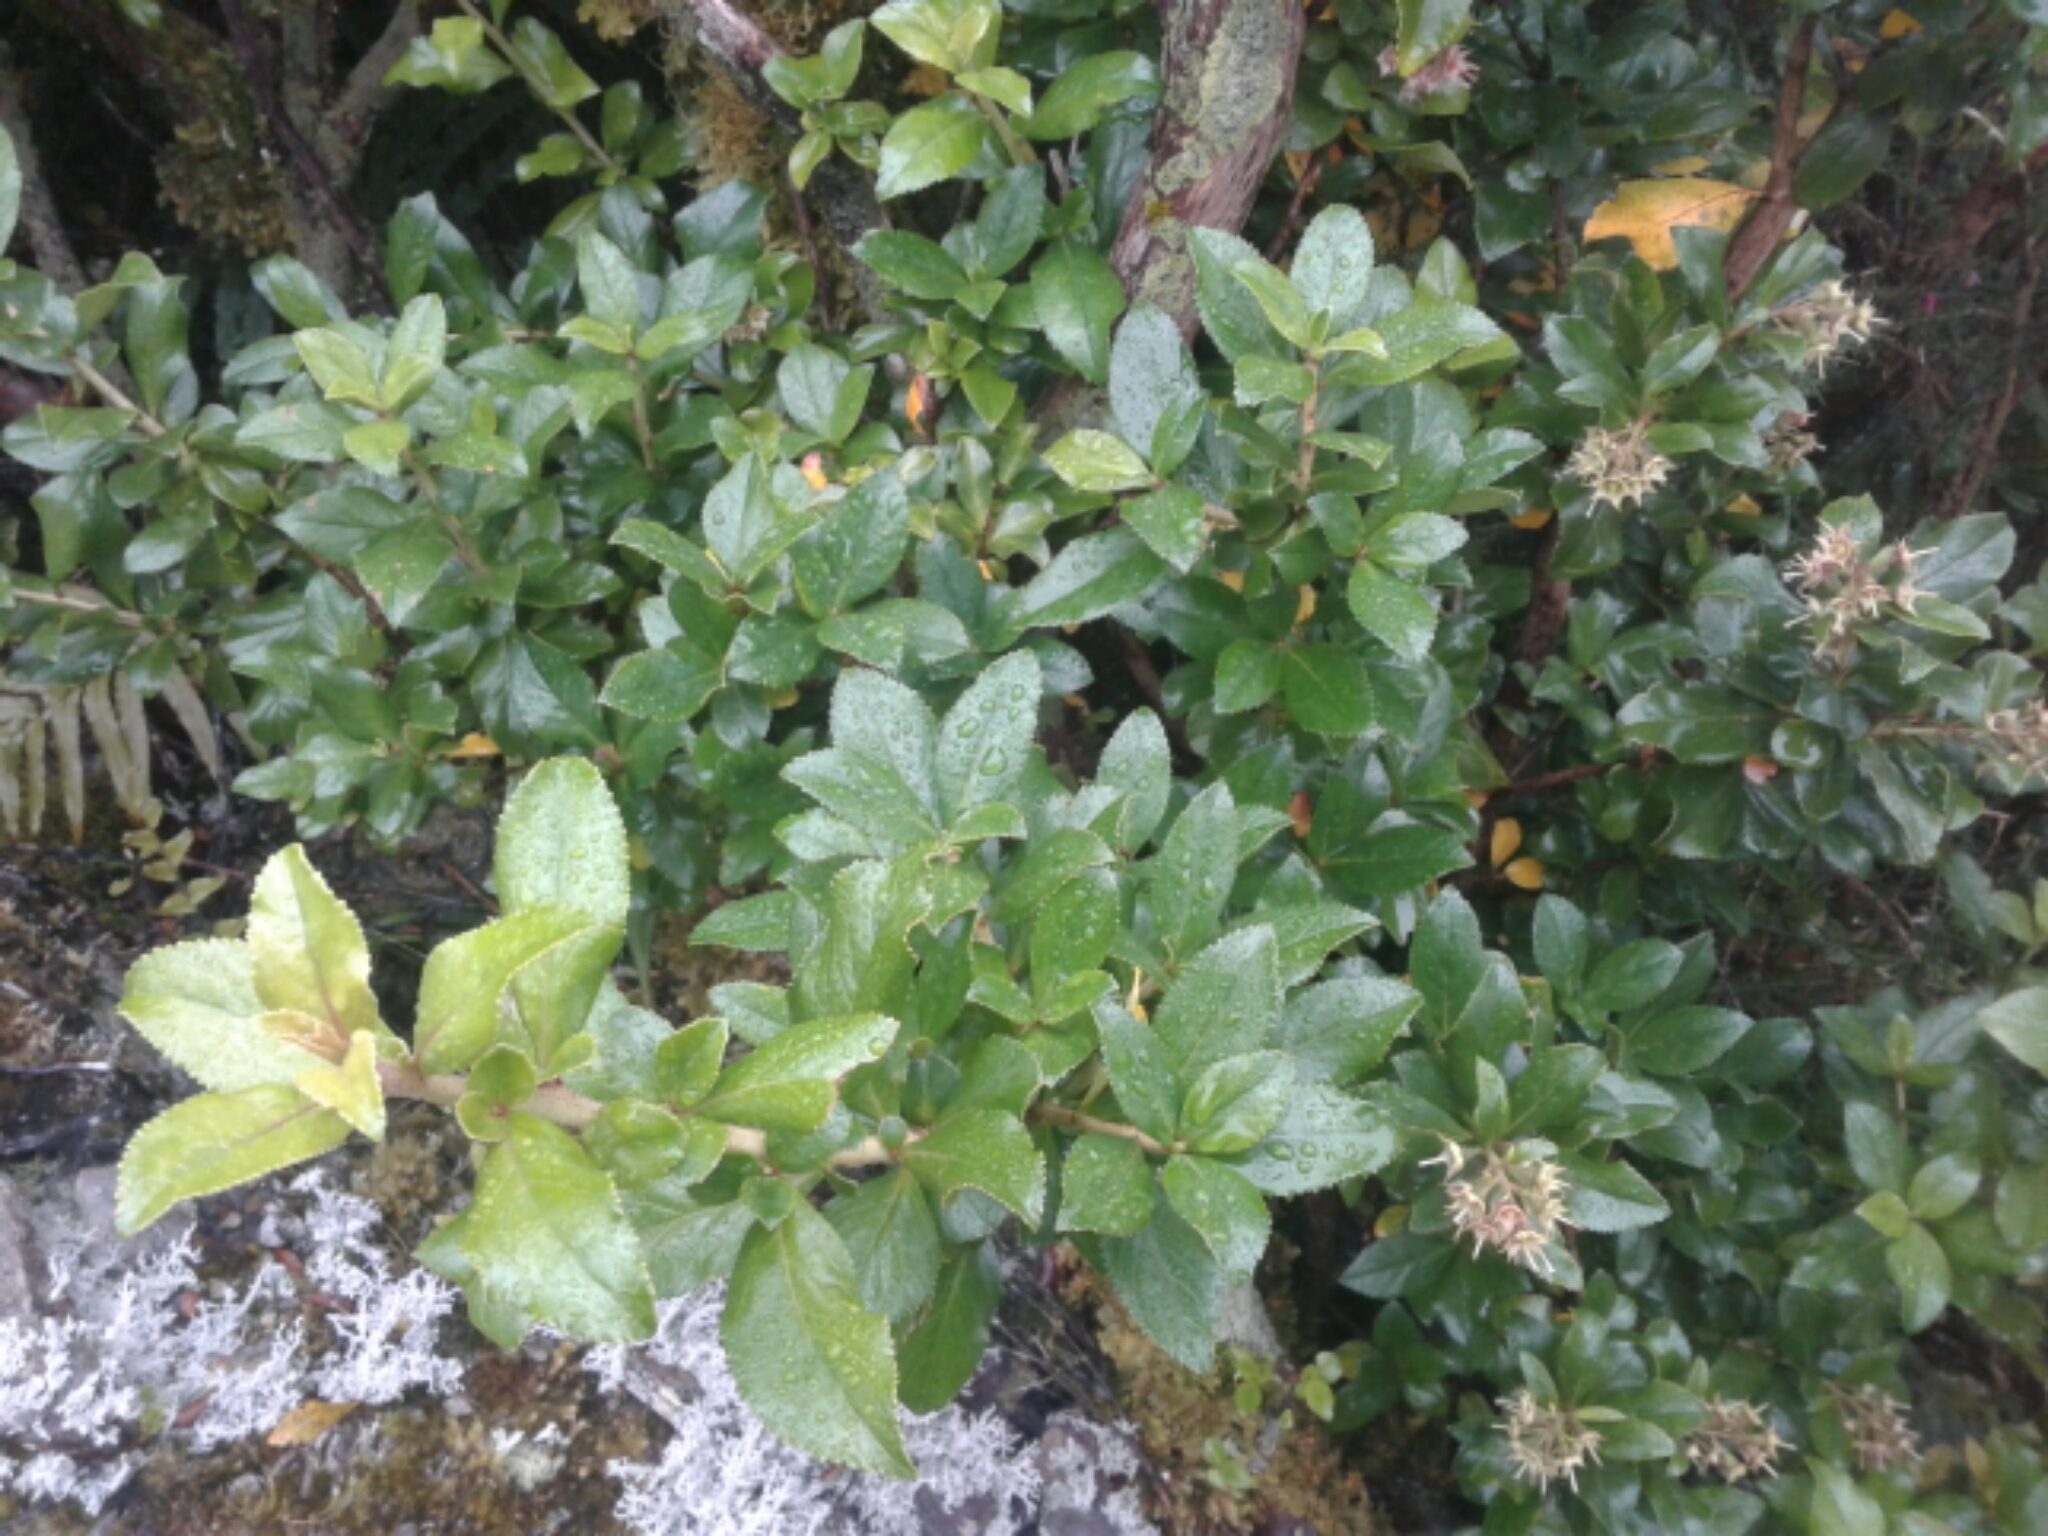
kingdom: Plantae
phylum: Tracheophyta
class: Magnoliopsida
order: Escalloniales
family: Escalloniaceae
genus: Escallonia
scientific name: Escallonia
